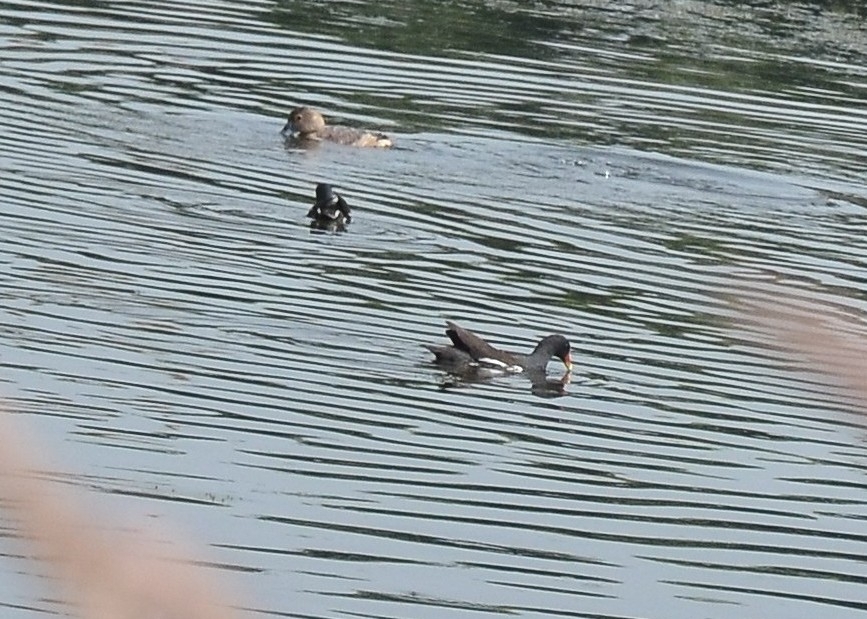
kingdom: Animalia
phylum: Chordata
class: Aves
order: Gruiformes
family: Rallidae
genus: Gallinula
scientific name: Gallinula chloropus
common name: Common moorhen
